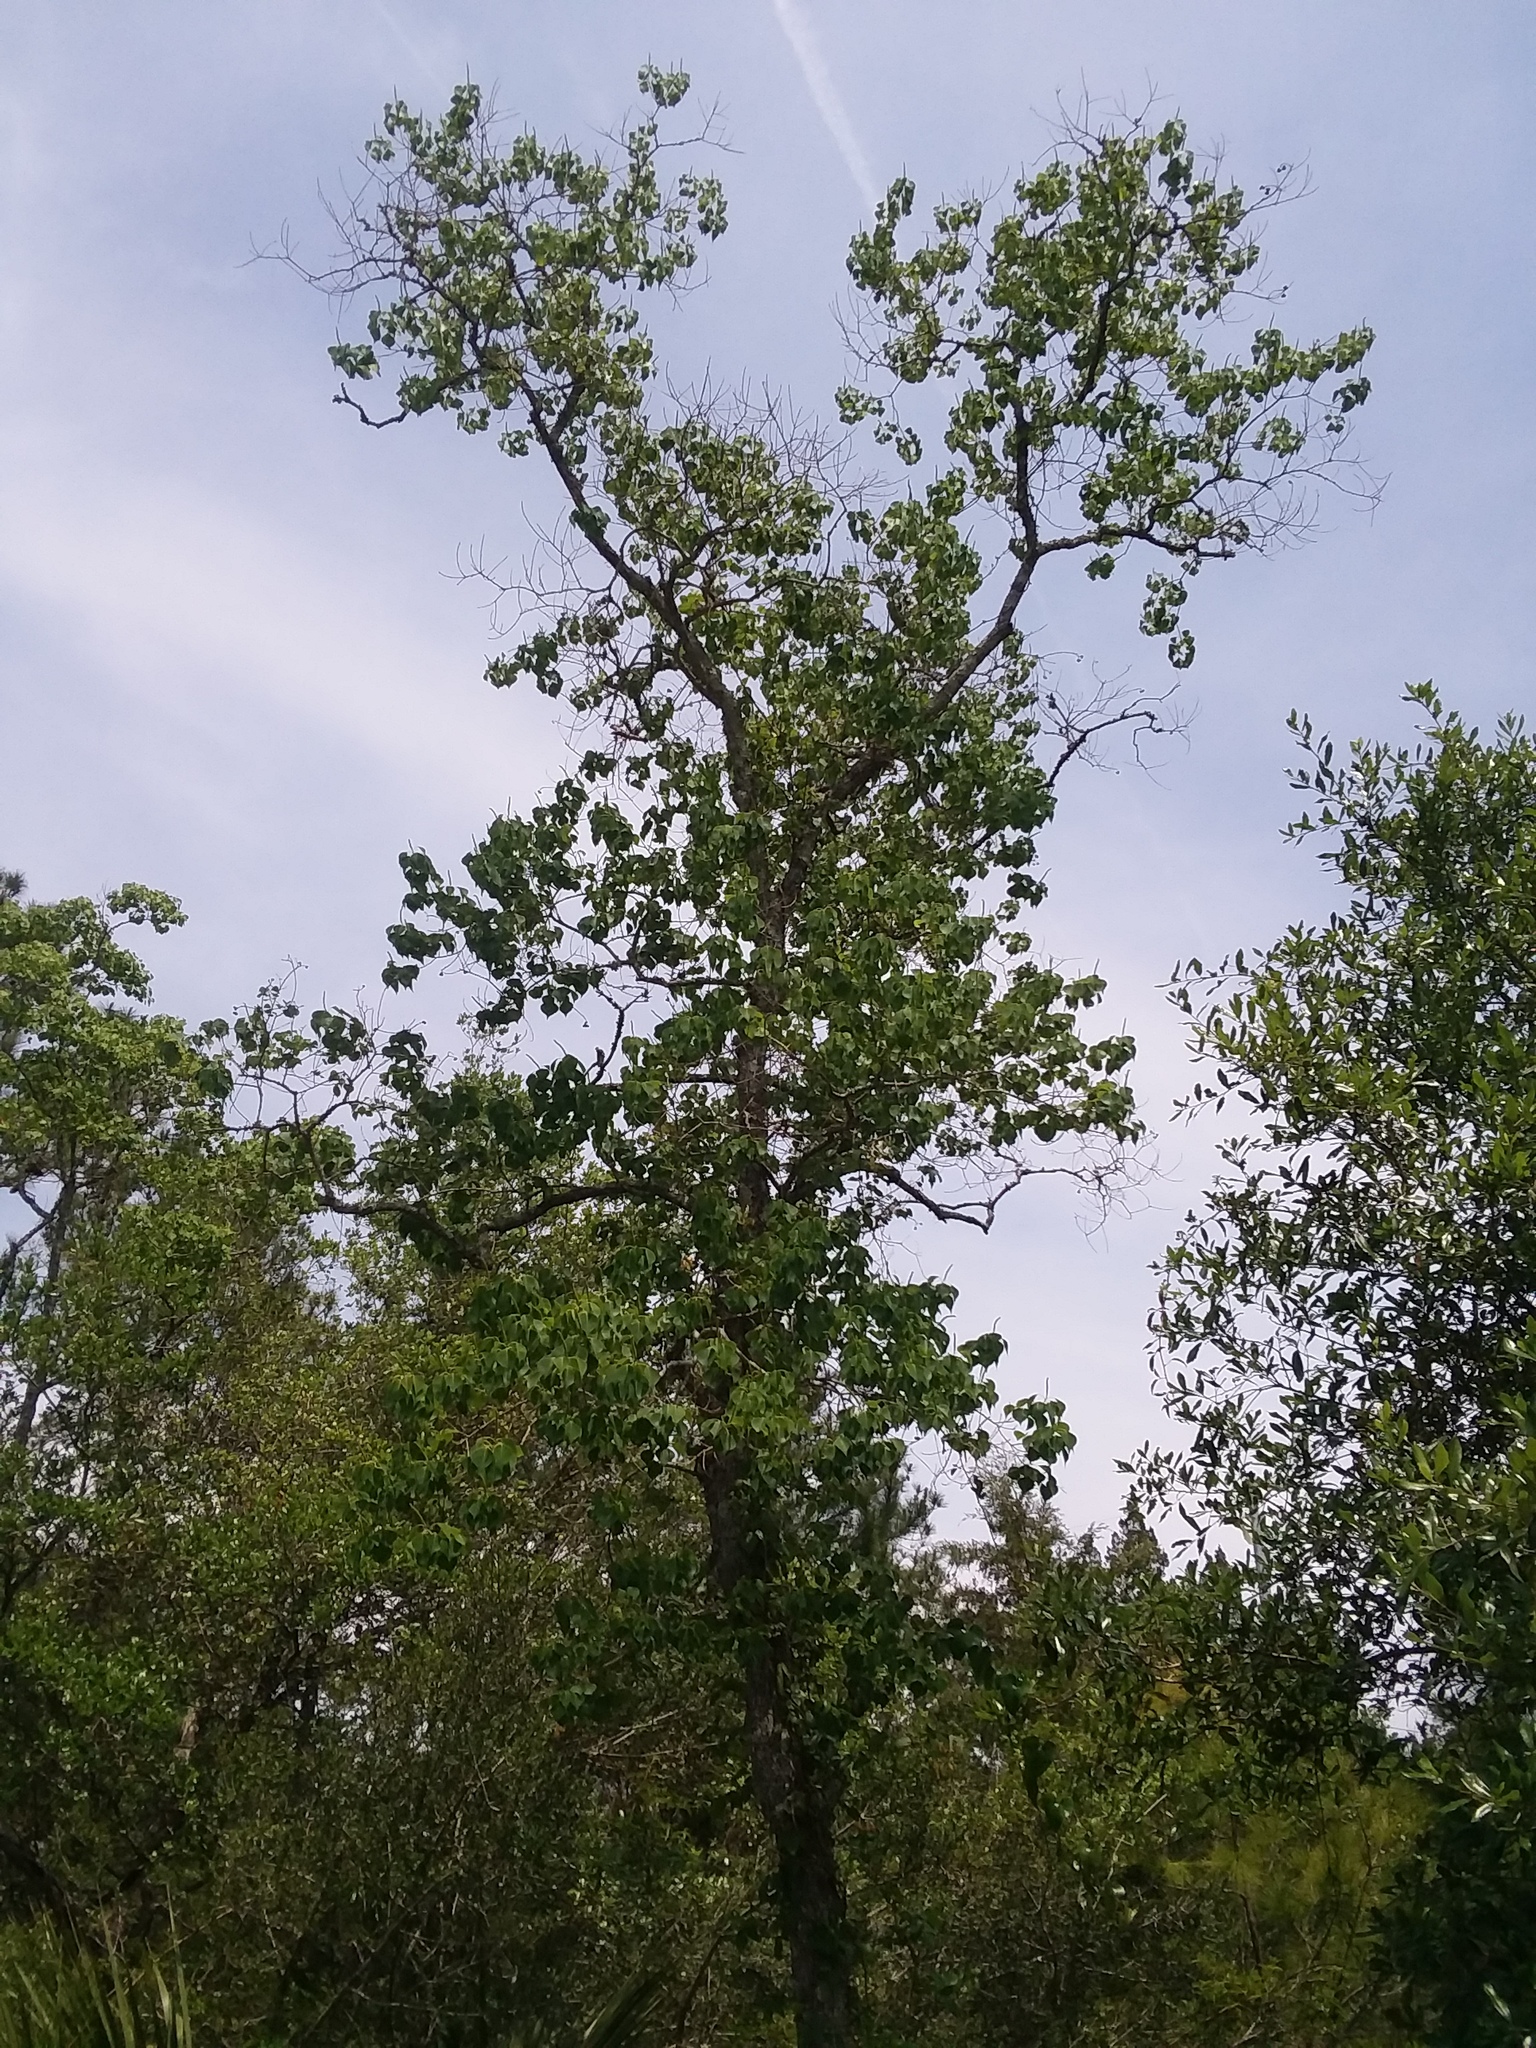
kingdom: Plantae
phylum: Tracheophyta
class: Magnoliopsida
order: Malpighiales
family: Euphorbiaceae
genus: Triadica
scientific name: Triadica sebifera
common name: Chinese tallow
